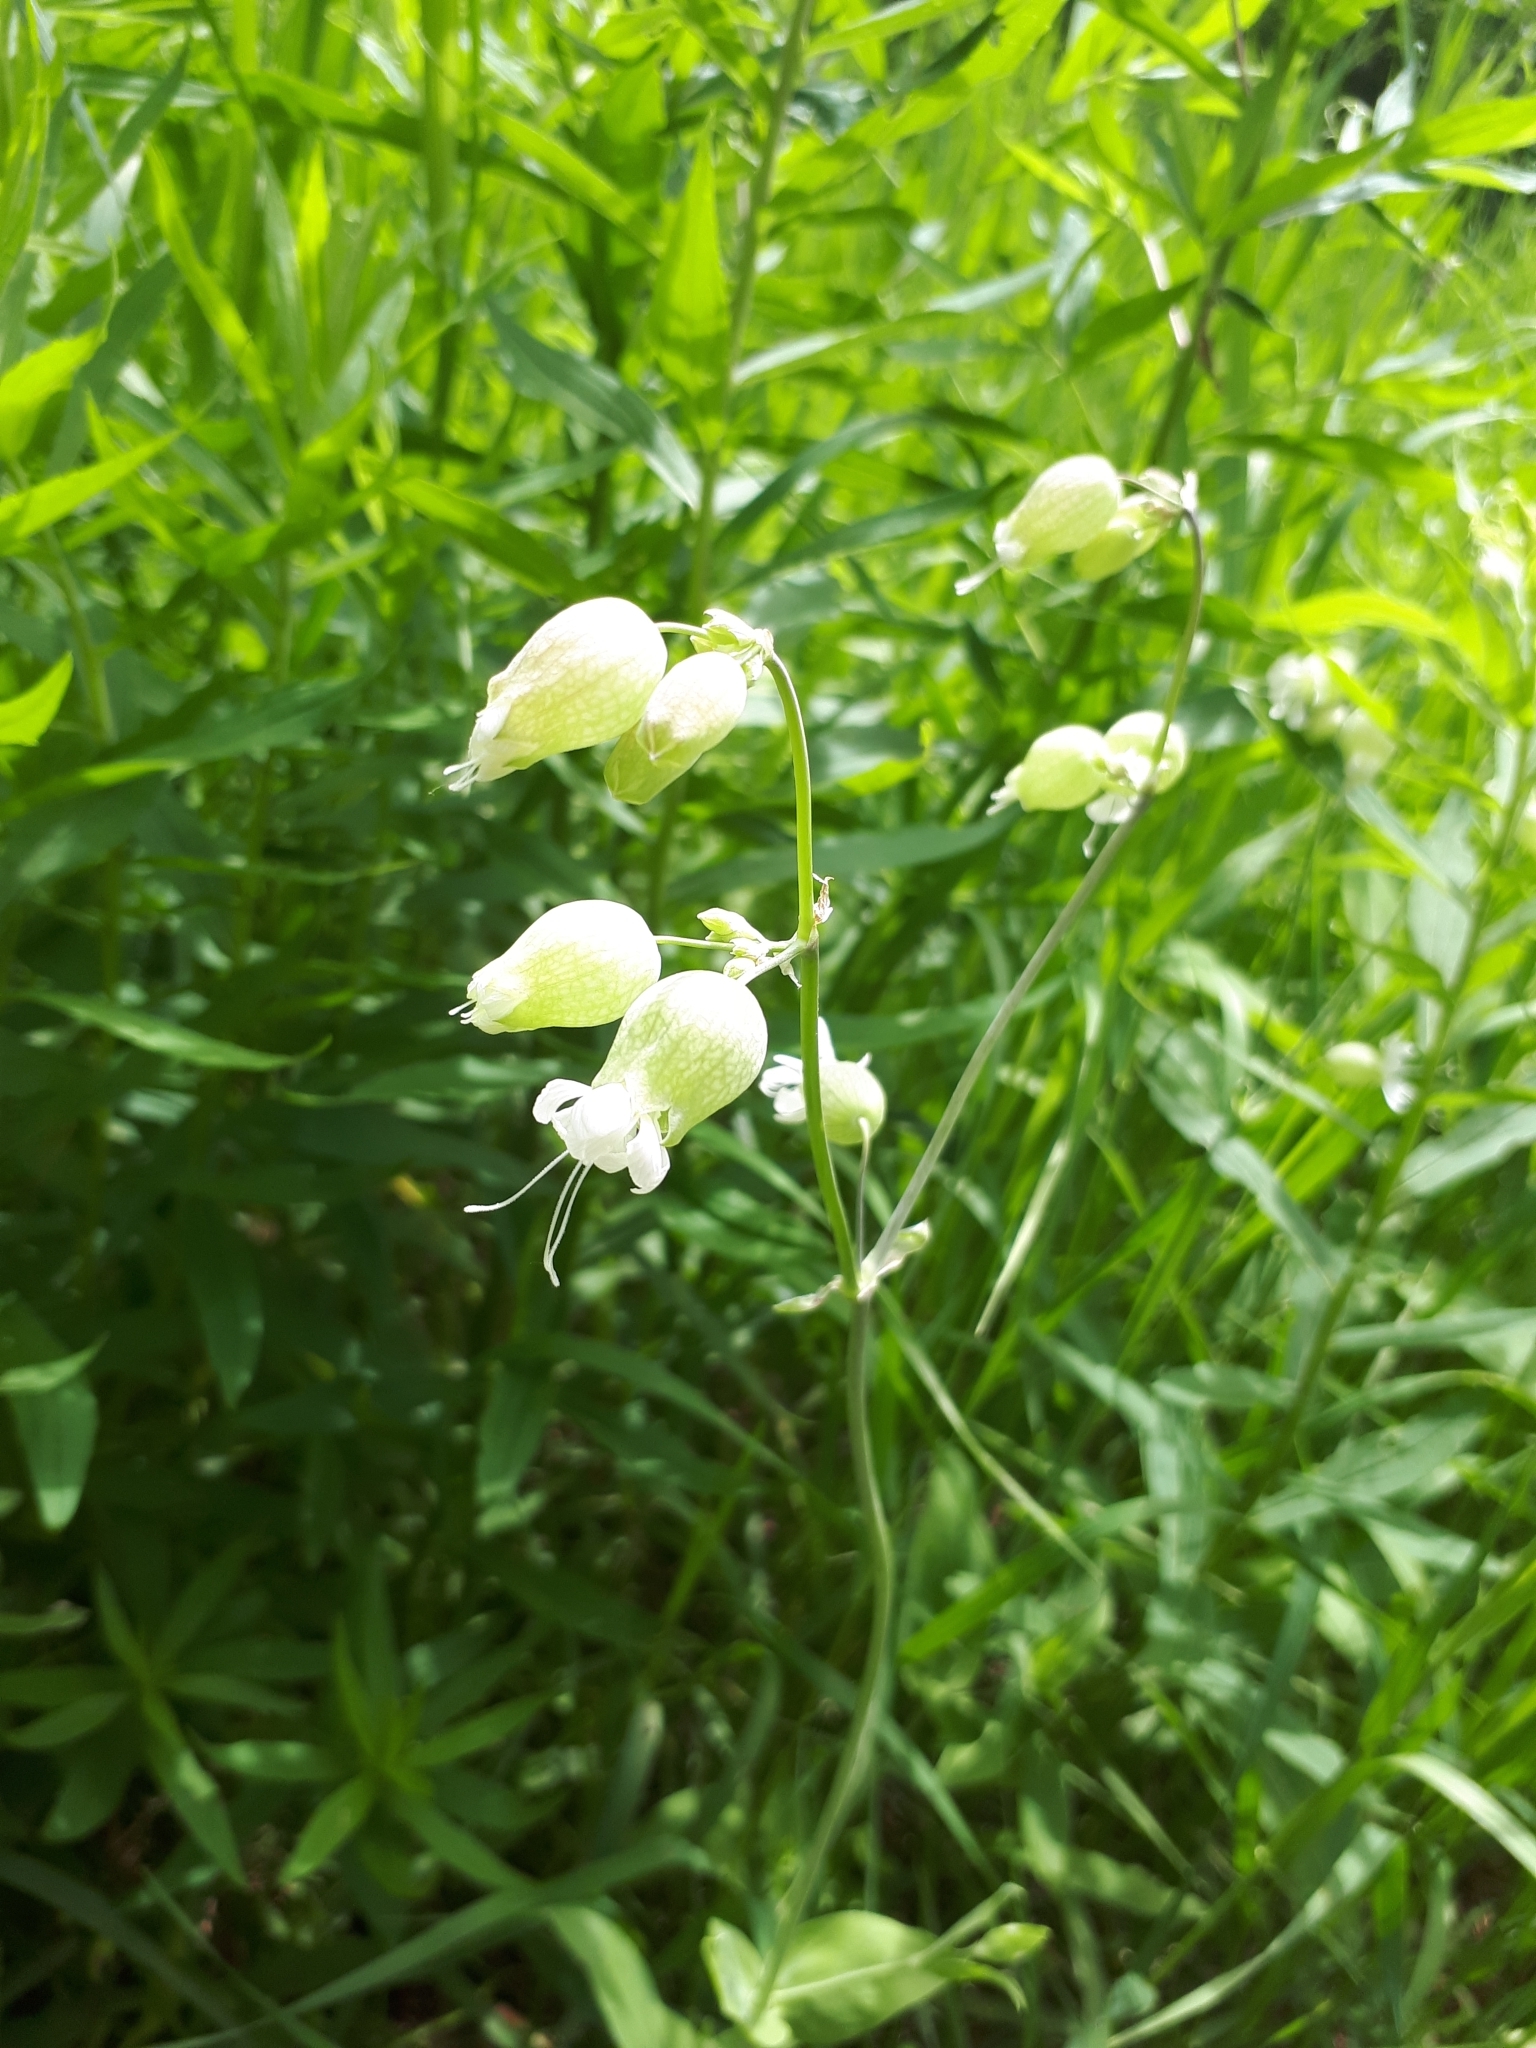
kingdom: Plantae
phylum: Tracheophyta
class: Magnoliopsida
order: Caryophyllales
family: Caryophyllaceae
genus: Silene
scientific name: Silene vulgaris
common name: Bladder campion
